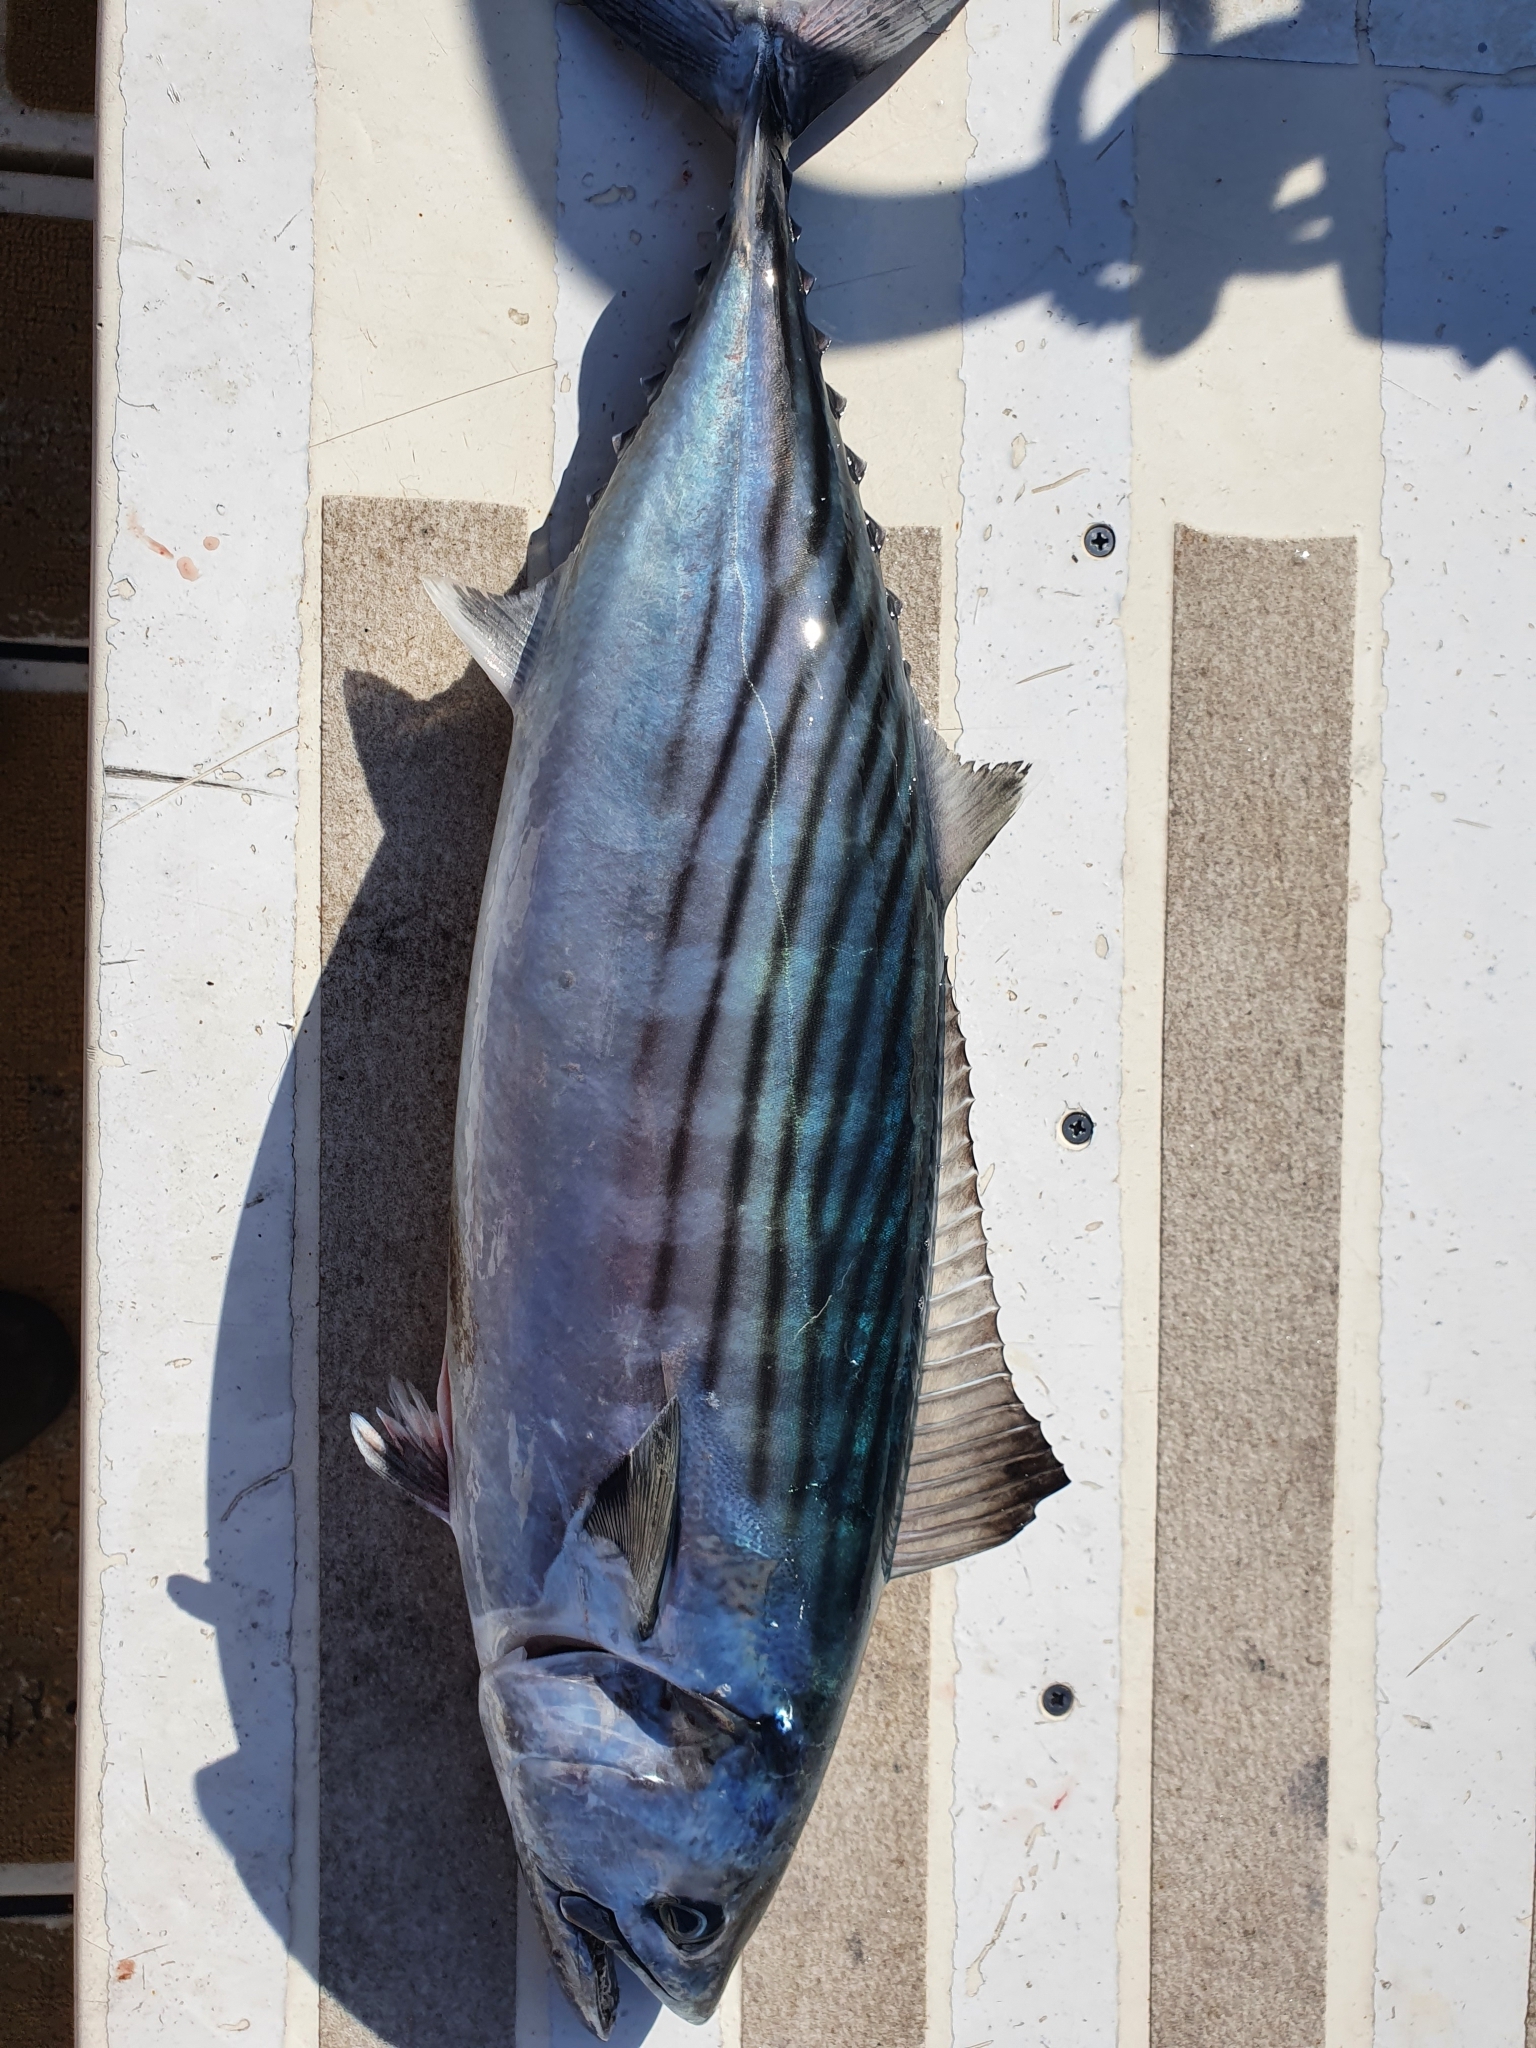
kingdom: Animalia
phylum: Chordata
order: Perciformes
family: Scombridae
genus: Sarda
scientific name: Sarda sarda
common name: Atlantic bonito
